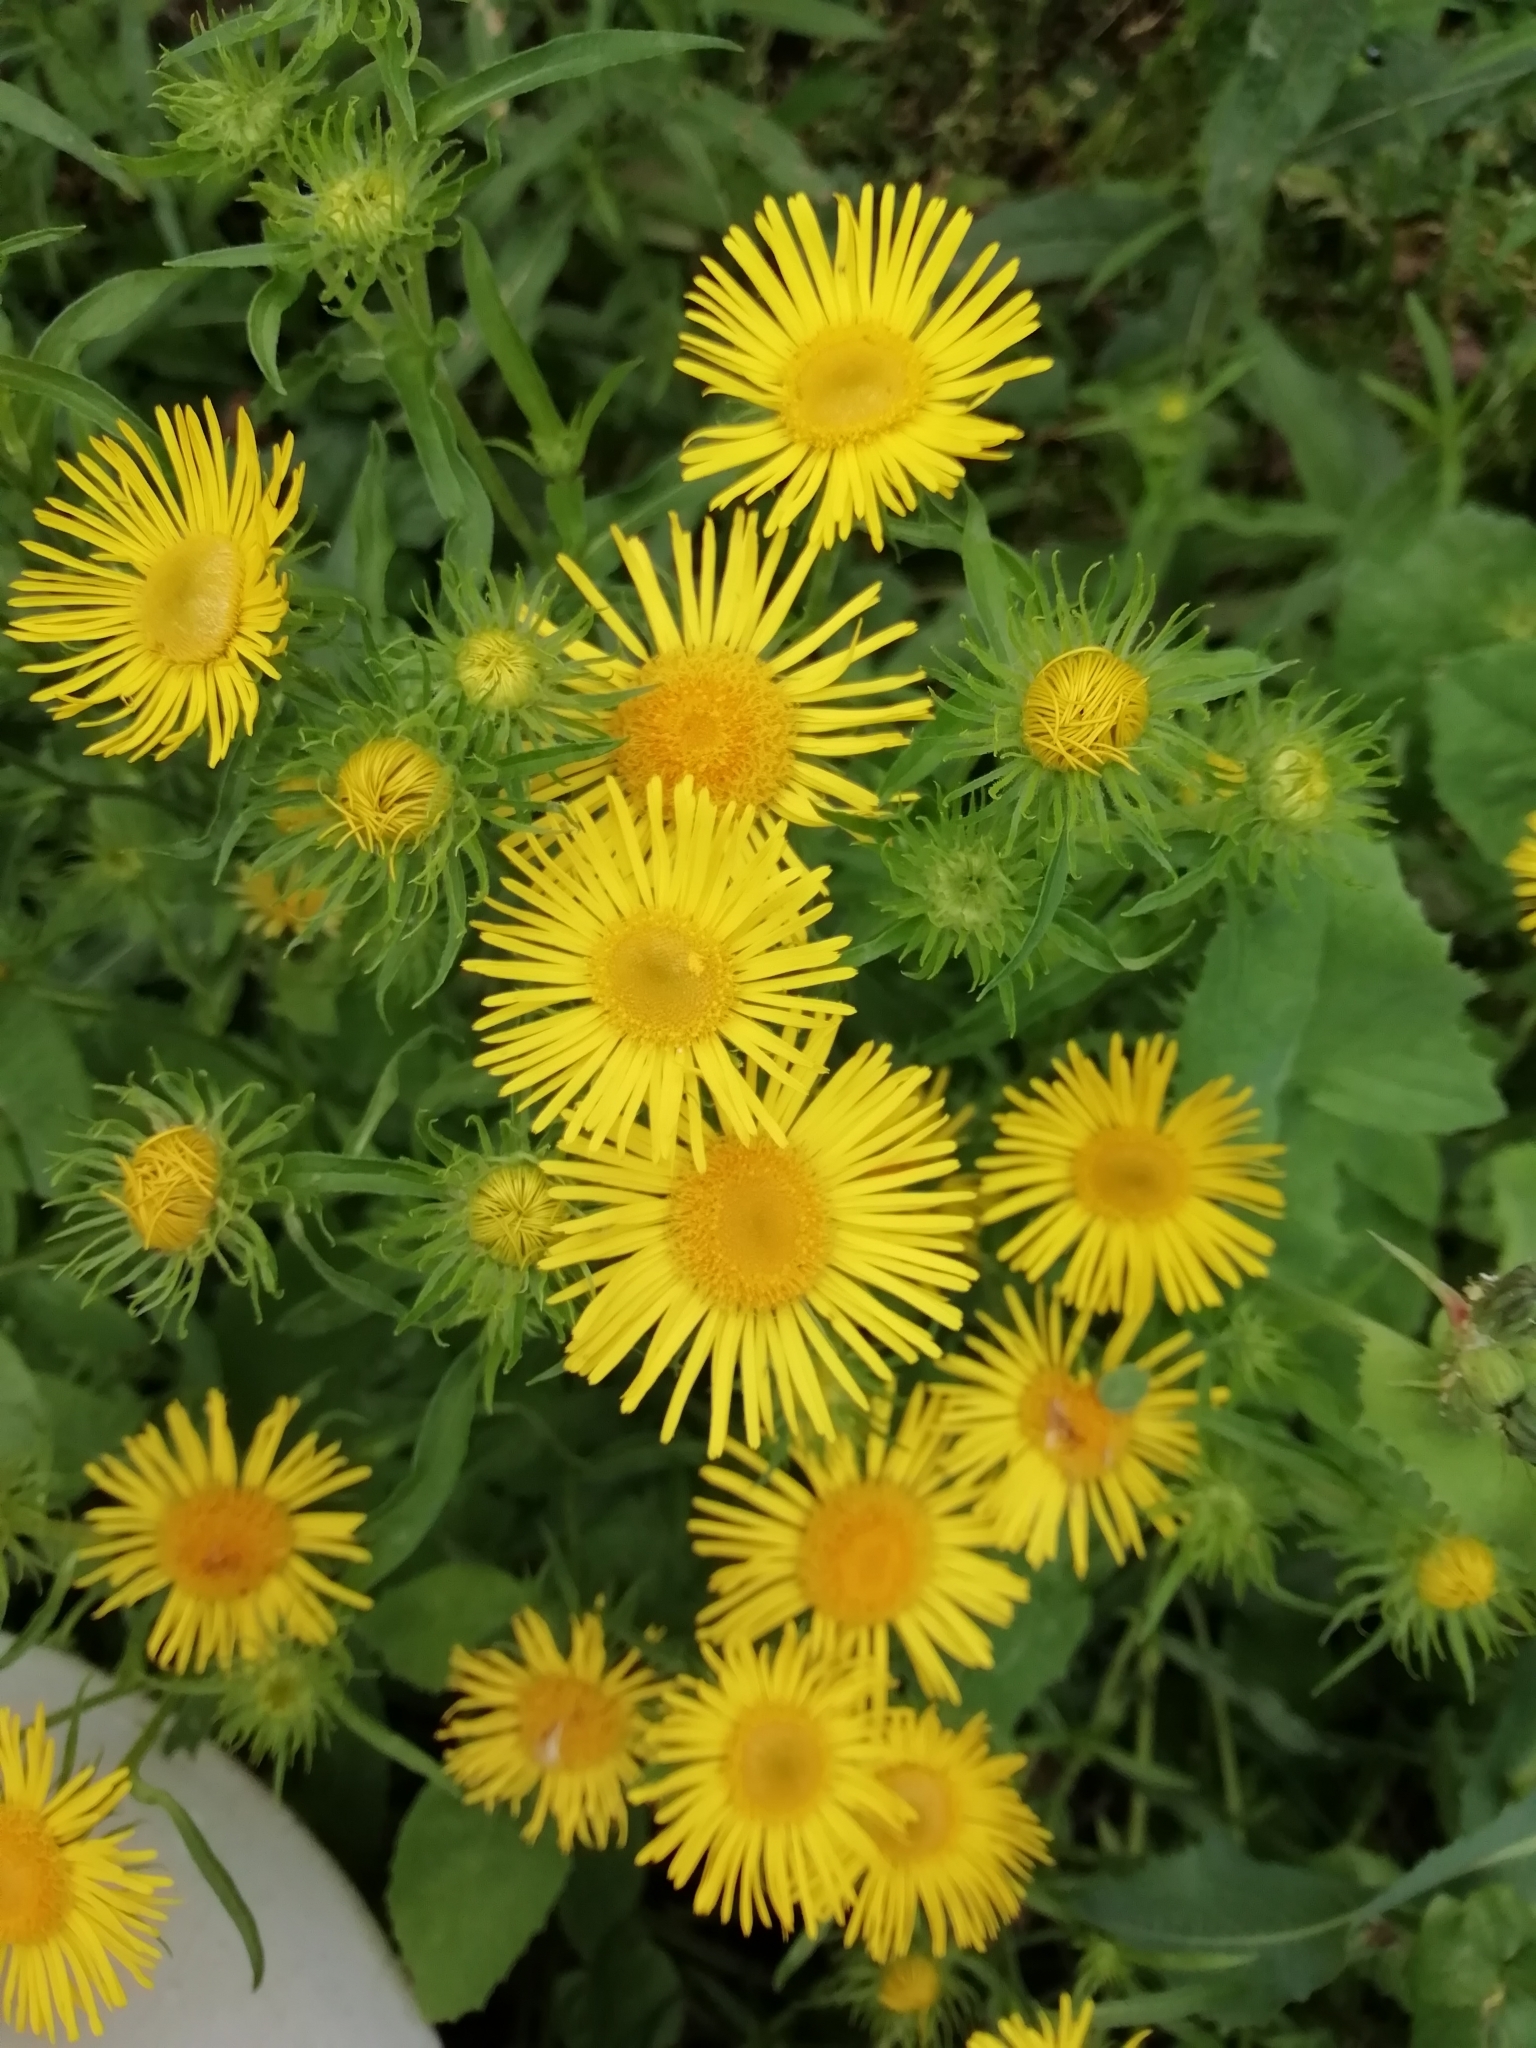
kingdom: Plantae
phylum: Tracheophyta
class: Magnoliopsida
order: Asterales
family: Asteraceae
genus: Pentanema
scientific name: Pentanema britannicum
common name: British elecampane
